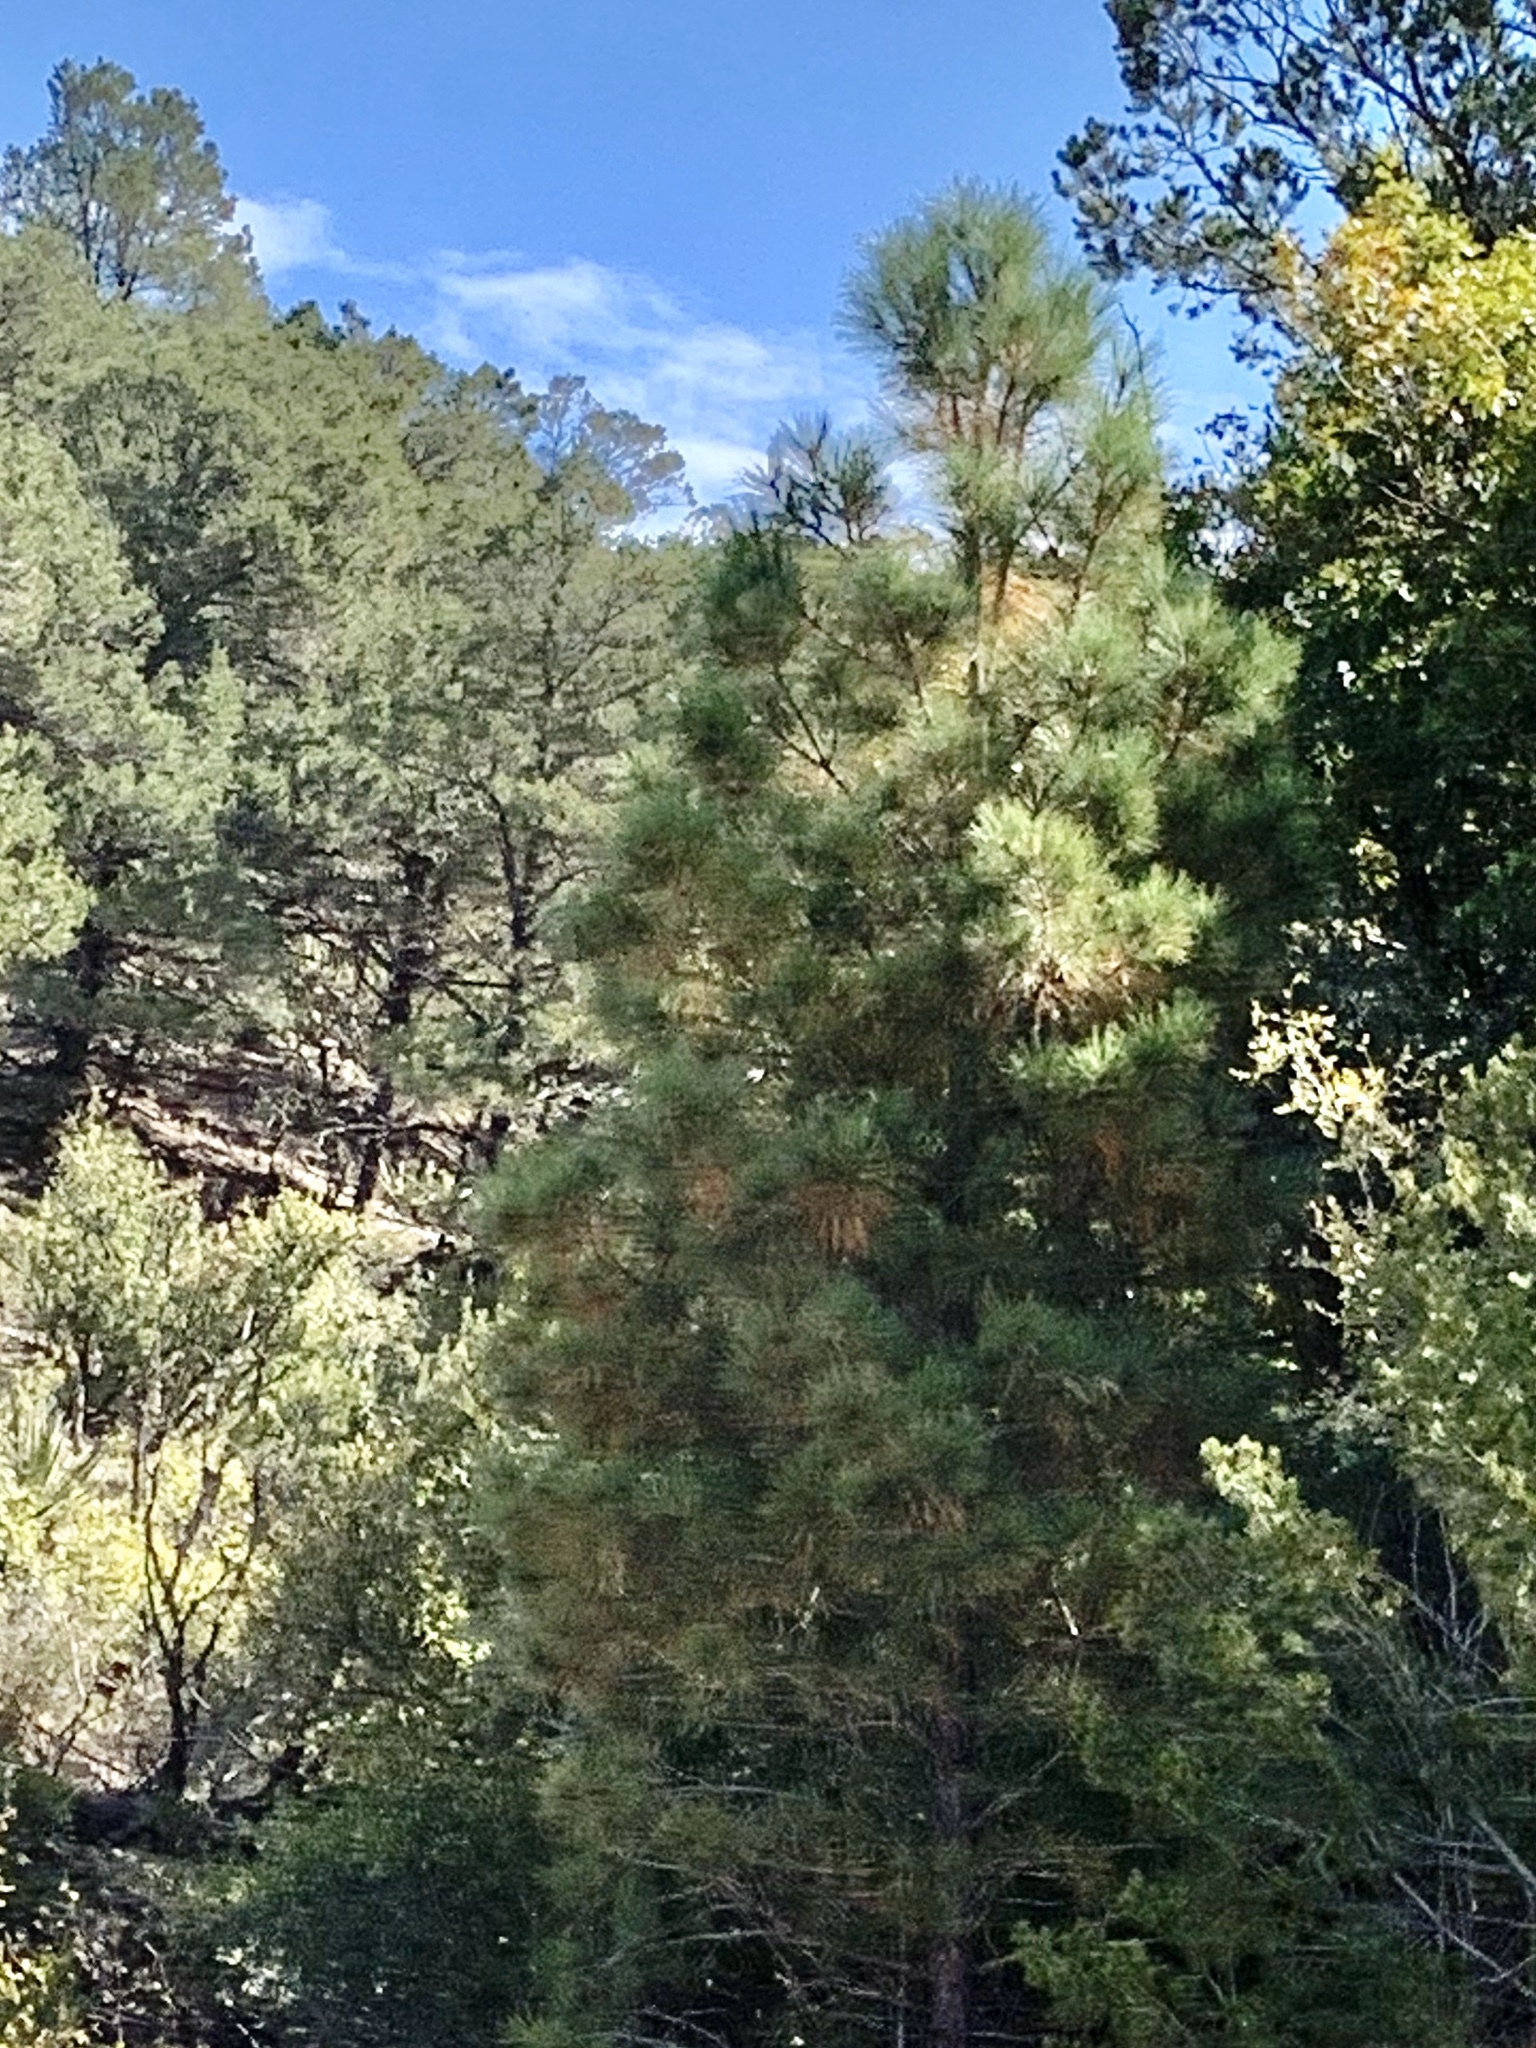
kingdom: Plantae
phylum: Tracheophyta
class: Pinopsida
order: Pinales
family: Pinaceae
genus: Pinus
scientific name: Pinus ponderosa
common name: Western yellow-pine
